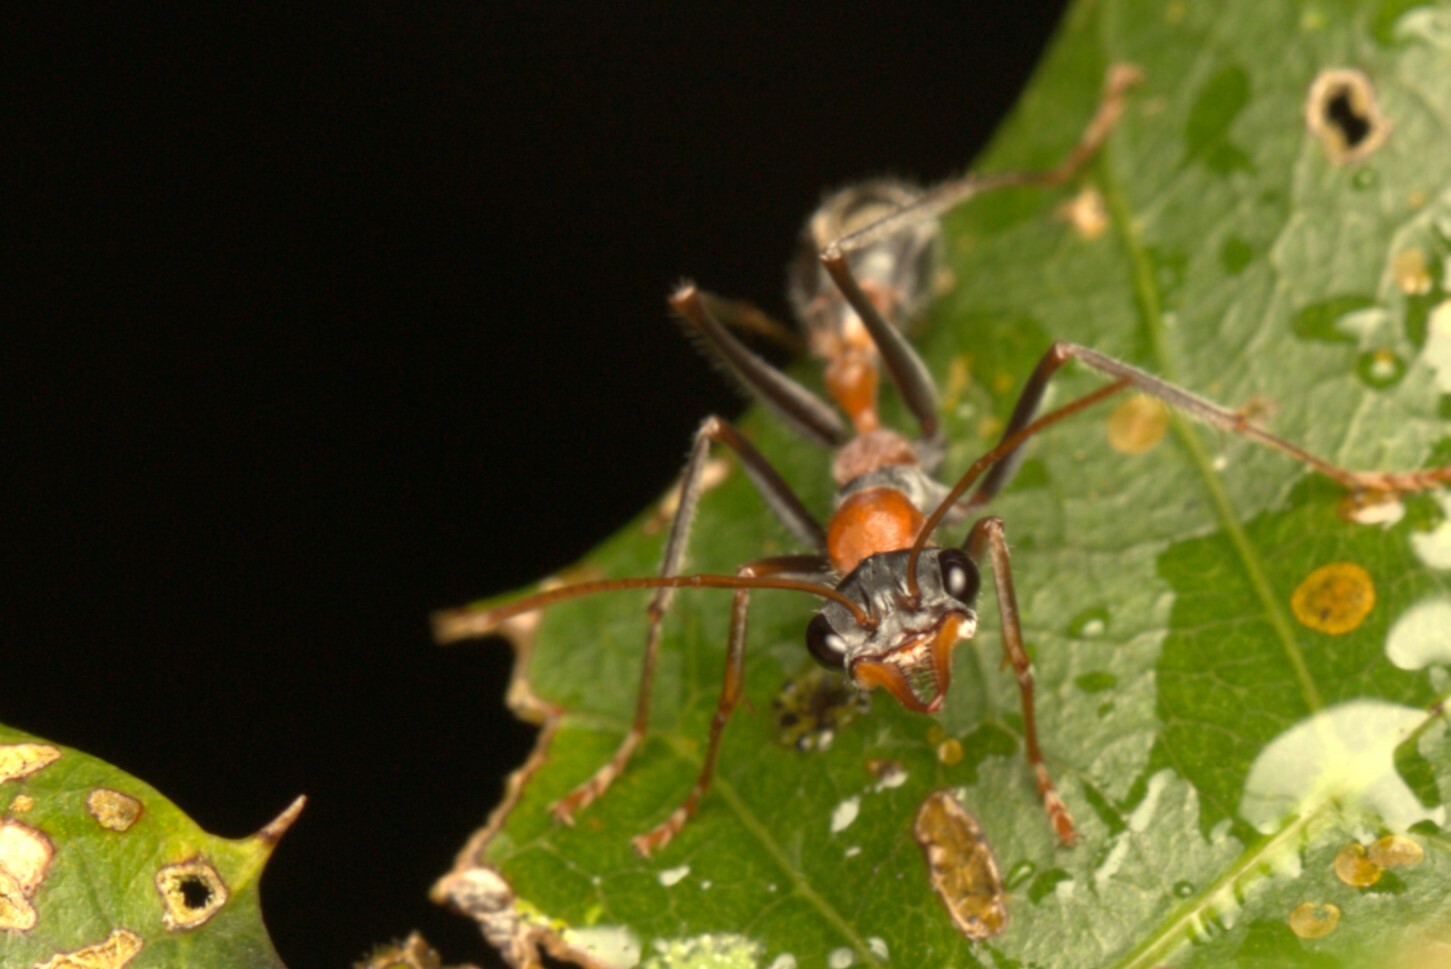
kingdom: Animalia
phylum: Arthropoda
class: Insecta
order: Hymenoptera
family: Formicidae
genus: Myrmecia
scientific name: Myrmecia nigrocincta
